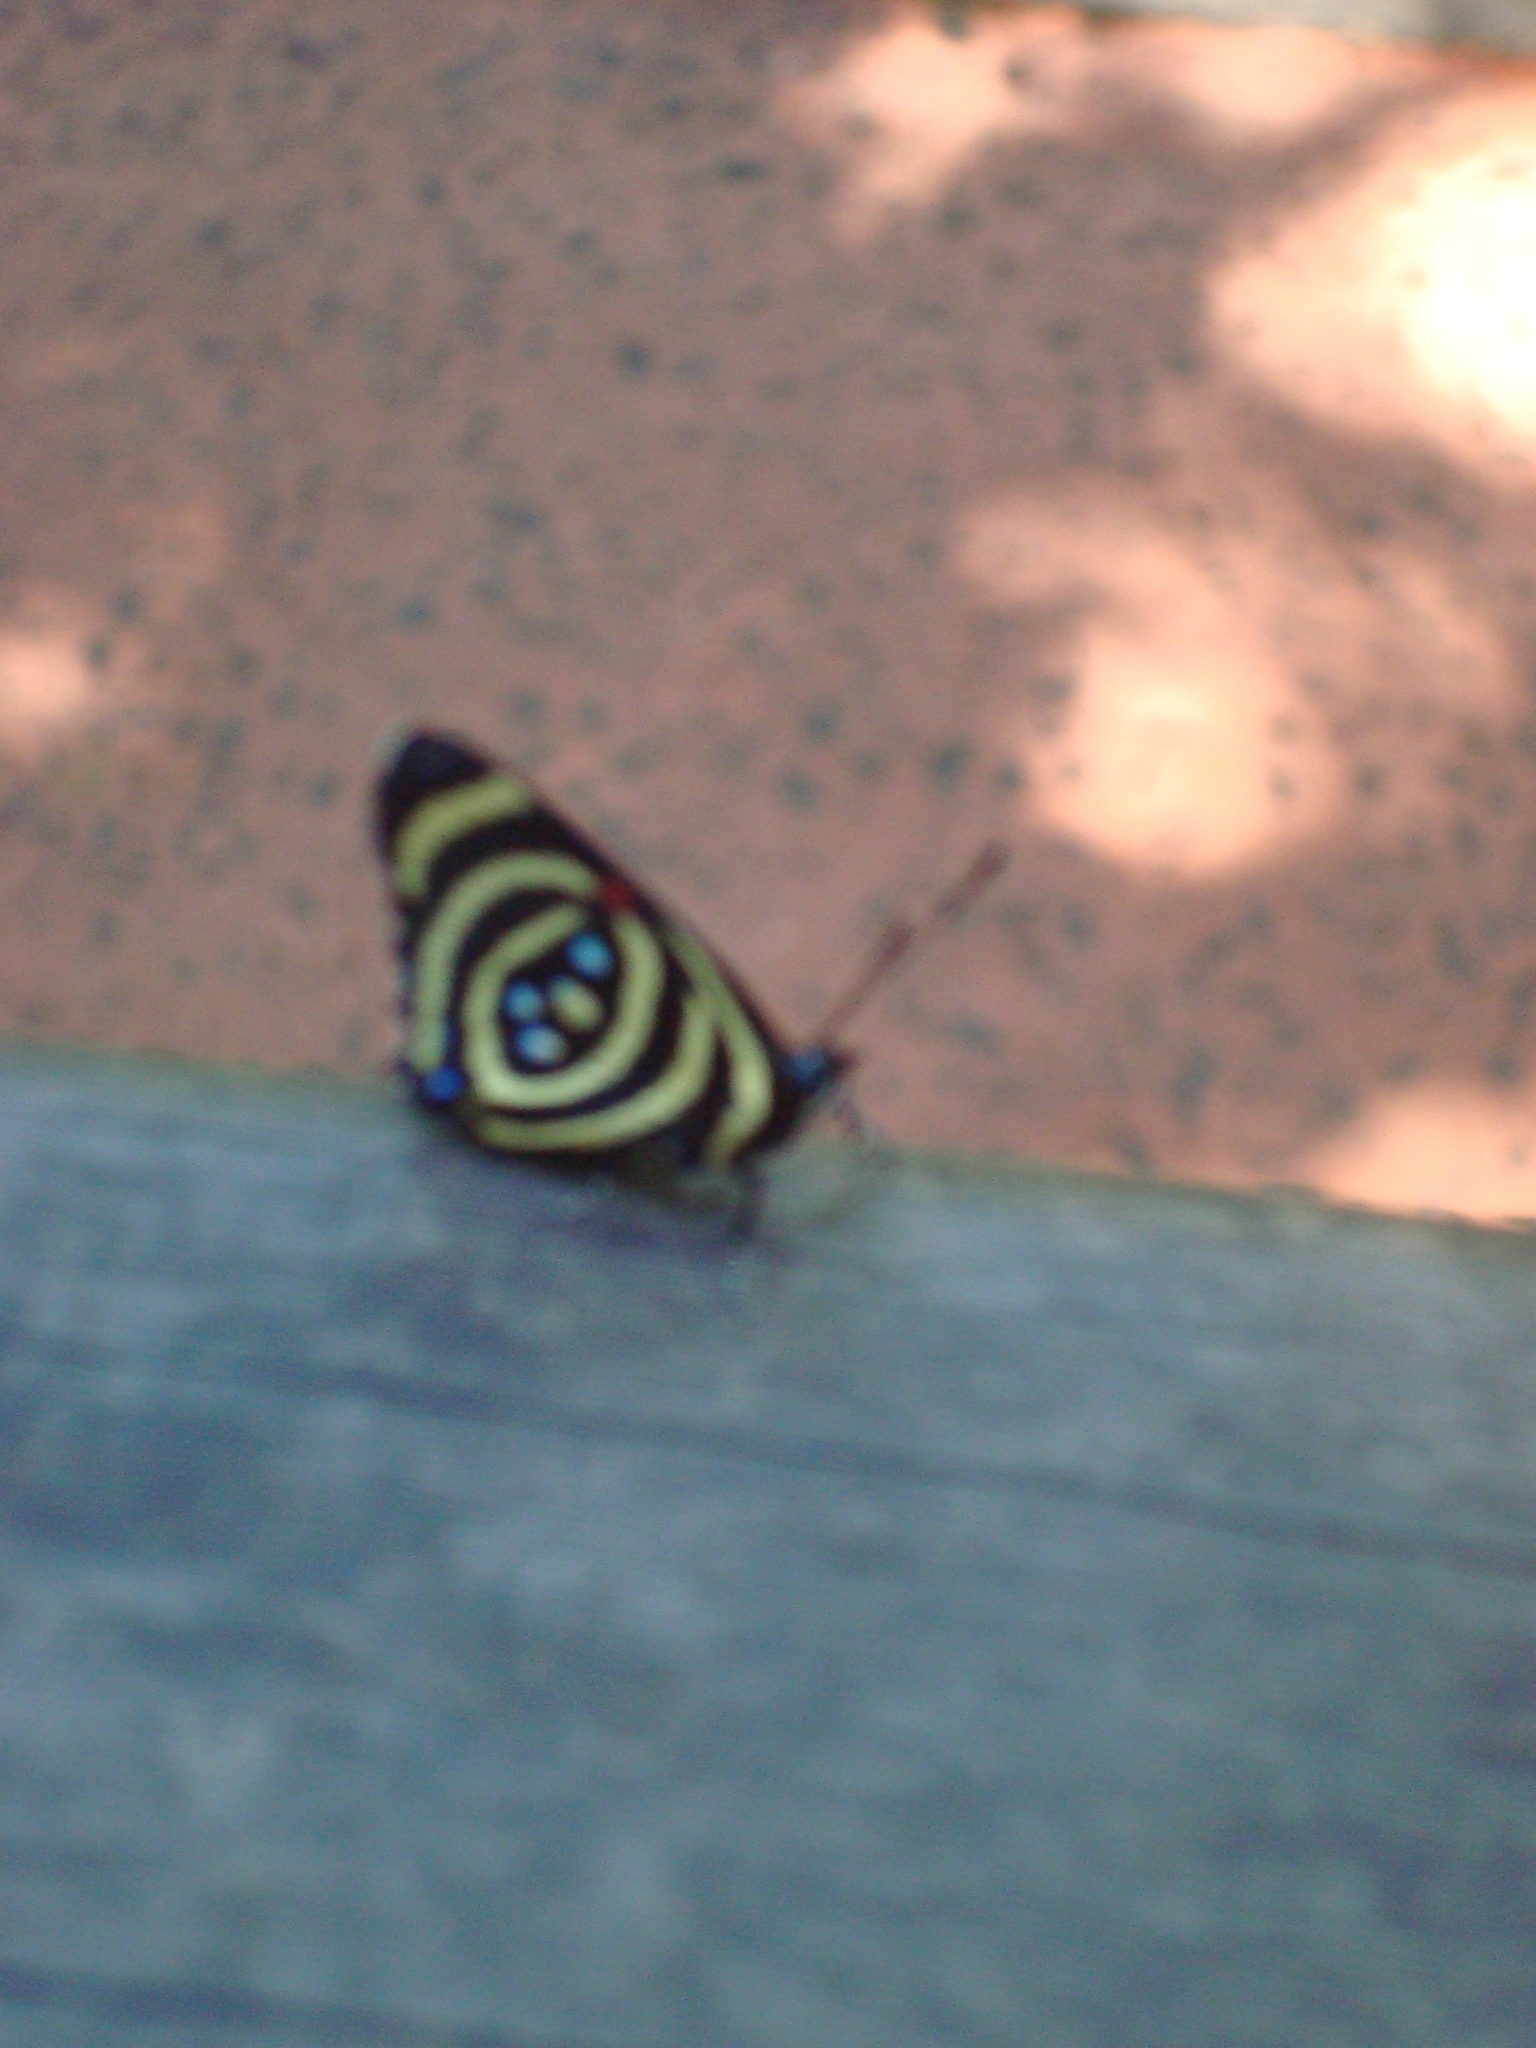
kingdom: Animalia
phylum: Arthropoda
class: Insecta
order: Lepidoptera
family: Nymphalidae
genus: Catagramma
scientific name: Catagramma Callicore hydaspes
